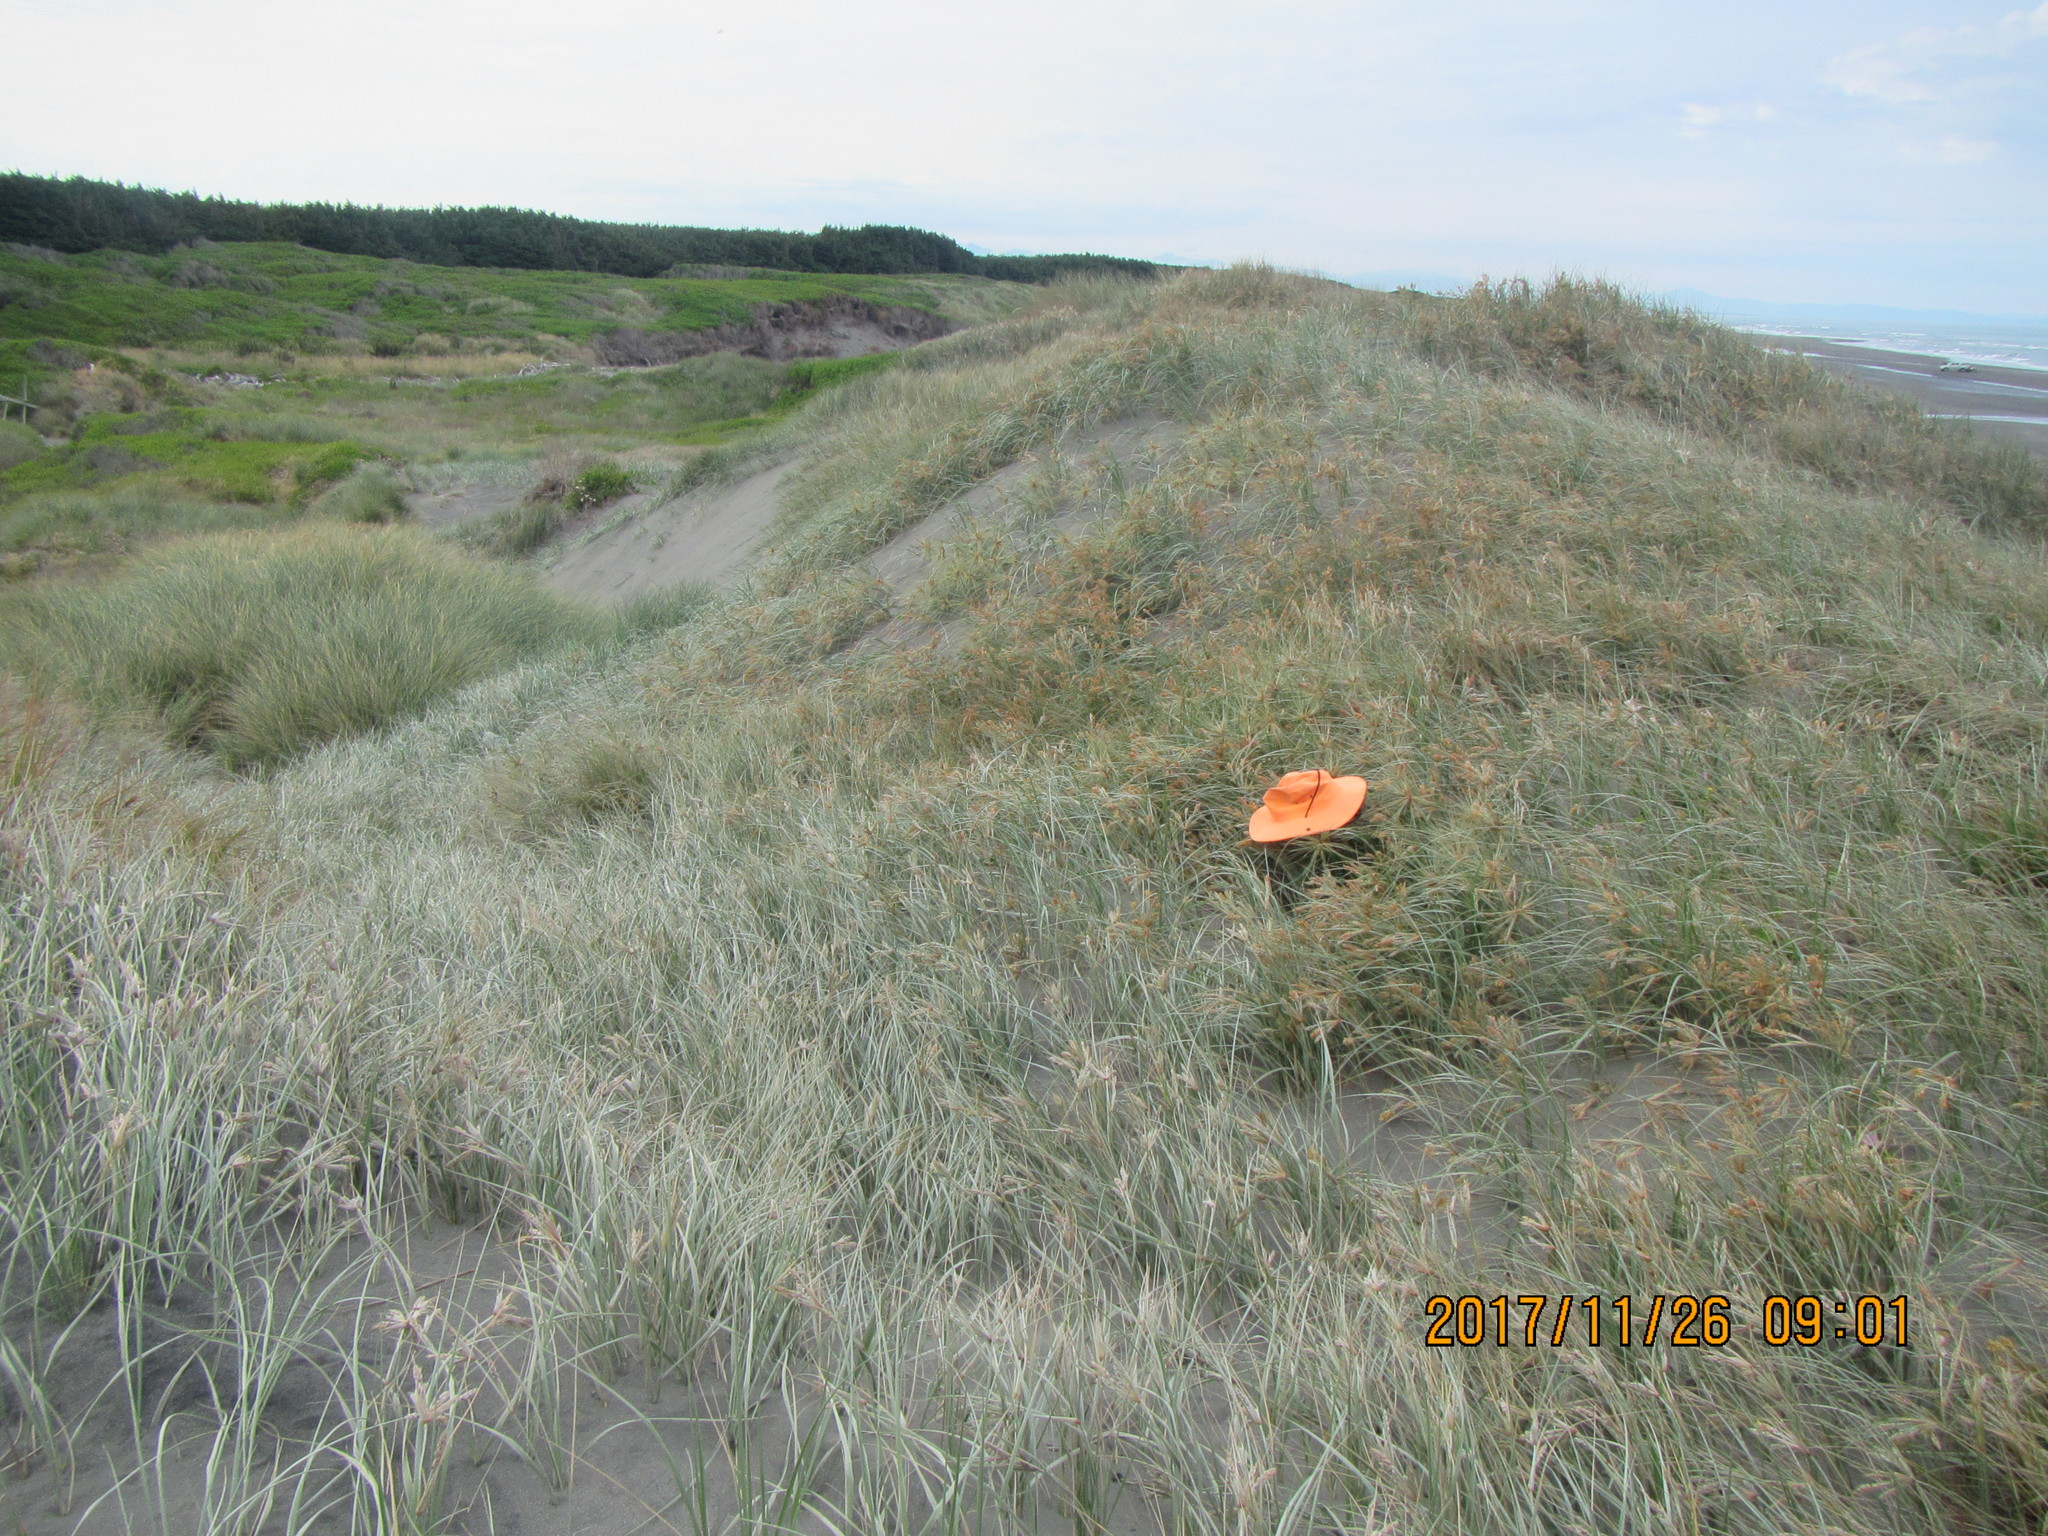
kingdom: Animalia
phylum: Arthropoda
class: Arachnida
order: Araneae
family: Theridiidae
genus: Latrodectus
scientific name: Latrodectus katipo
